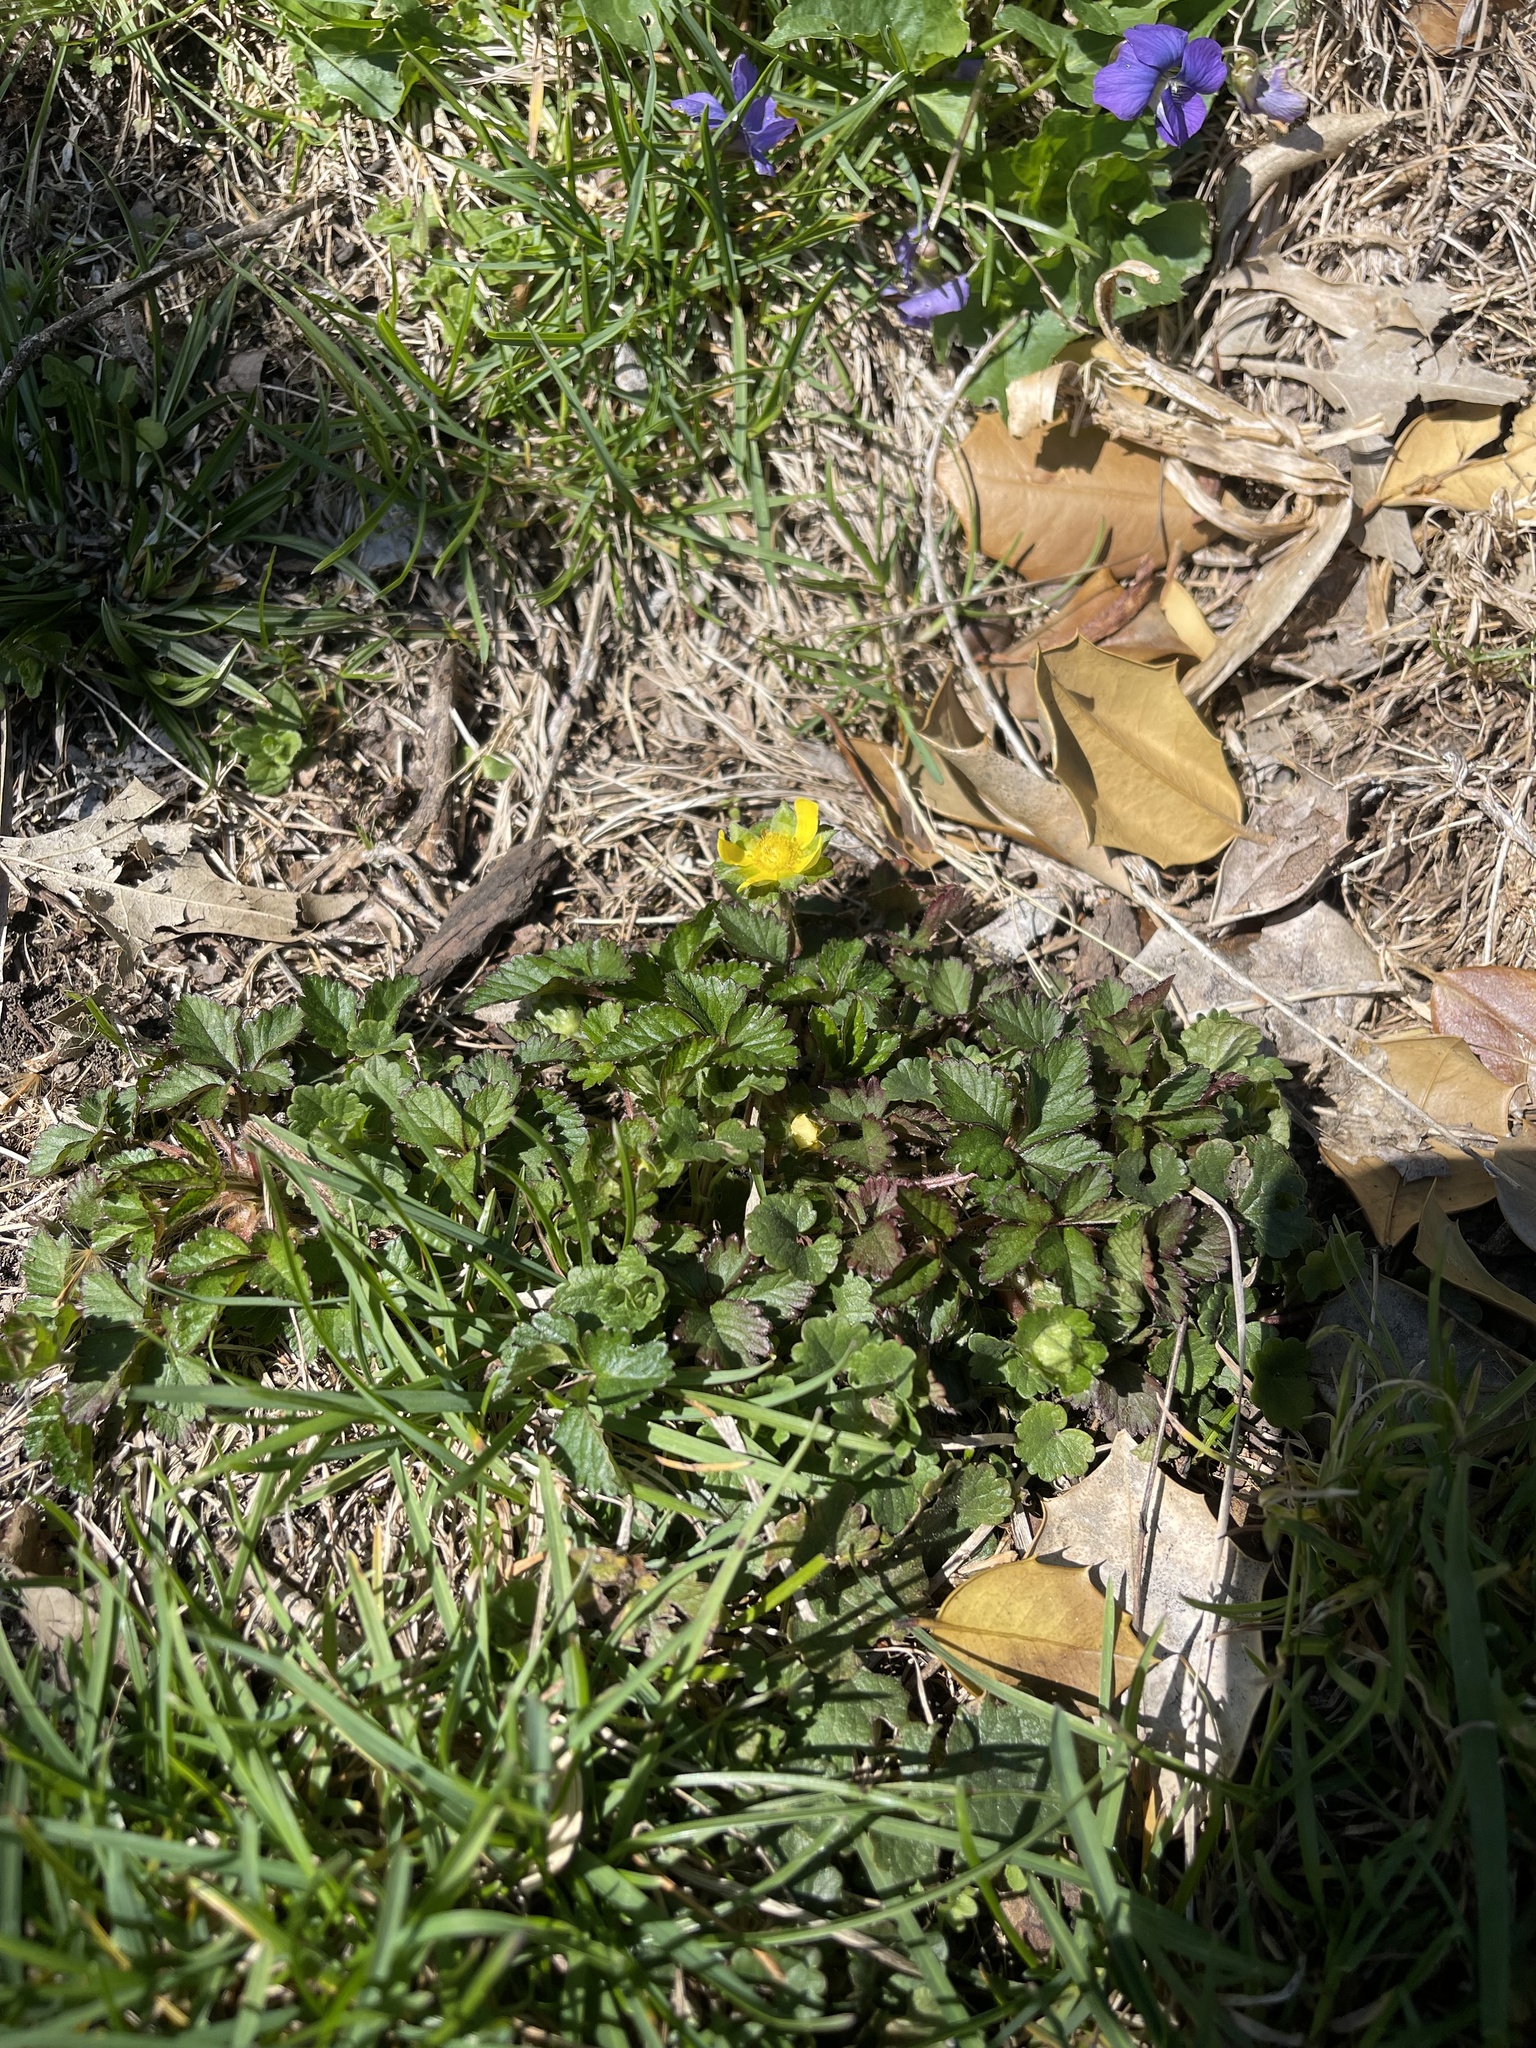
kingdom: Plantae
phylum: Tracheophyta
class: Magnoliopsida
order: Rosales
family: Rosaceae
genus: Potentilla
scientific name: Potentilla indica
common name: Yellow-flowered strawberry
